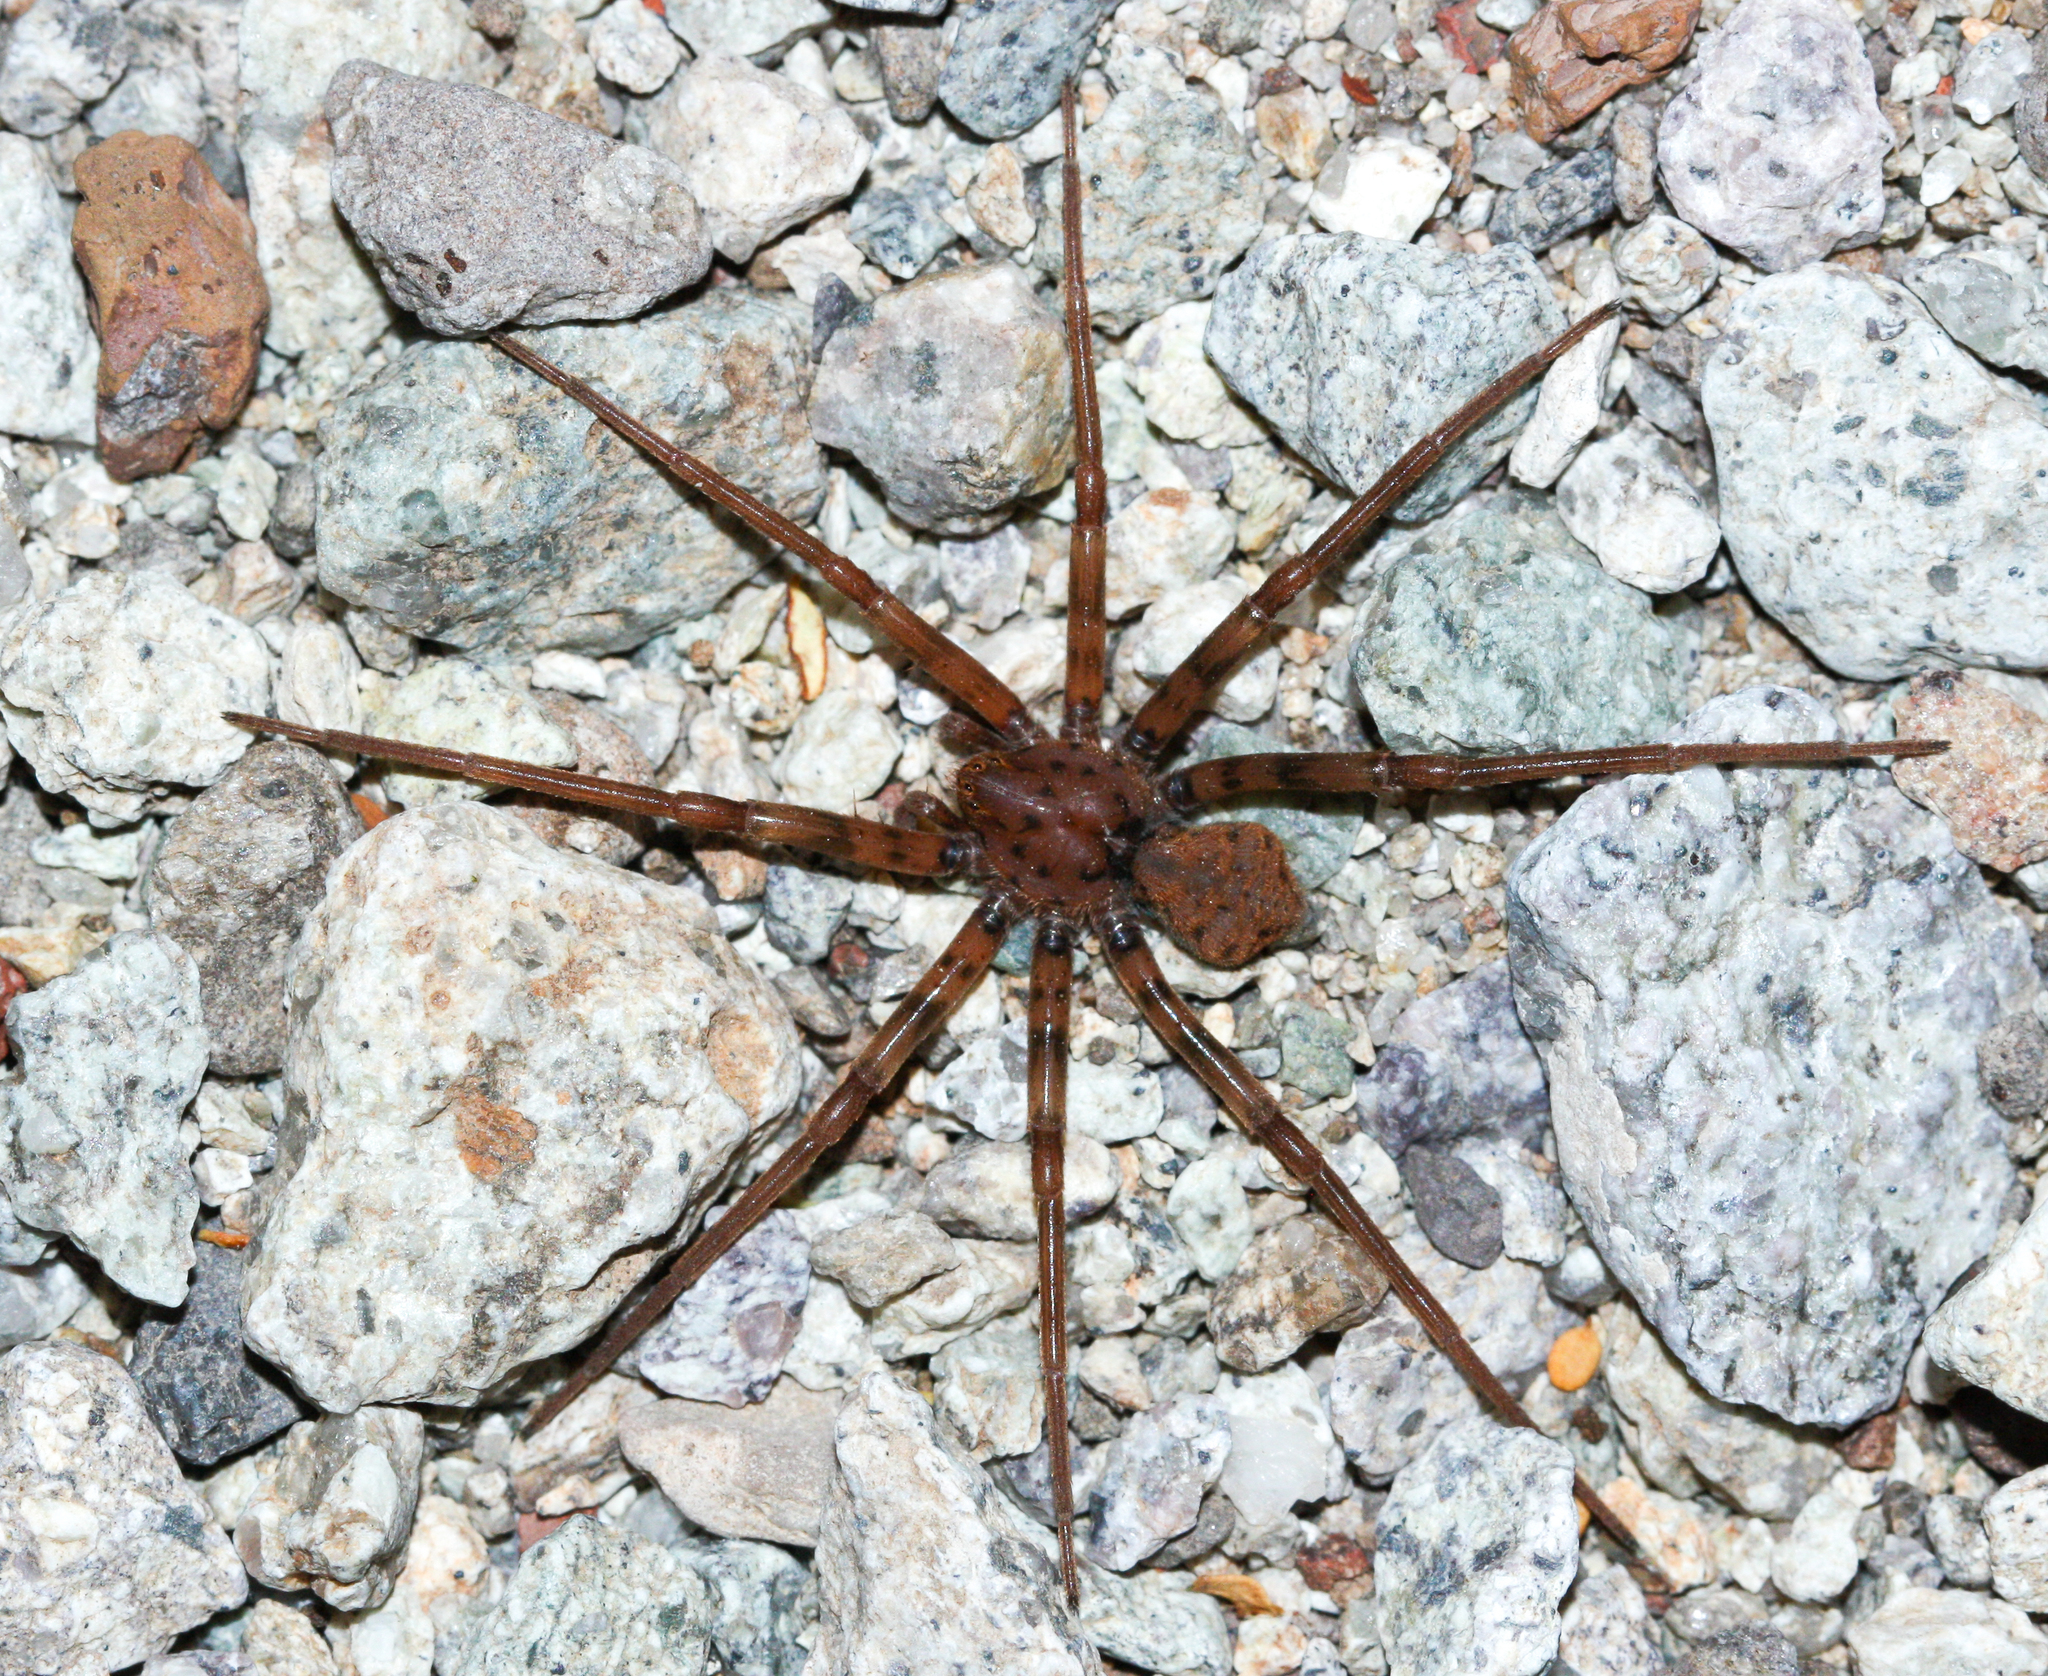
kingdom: Animalia
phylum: Arthropoda
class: Arachnida
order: Araneae
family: Homalonychidae
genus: Homalonychus
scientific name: Homalonychus selenopoides
